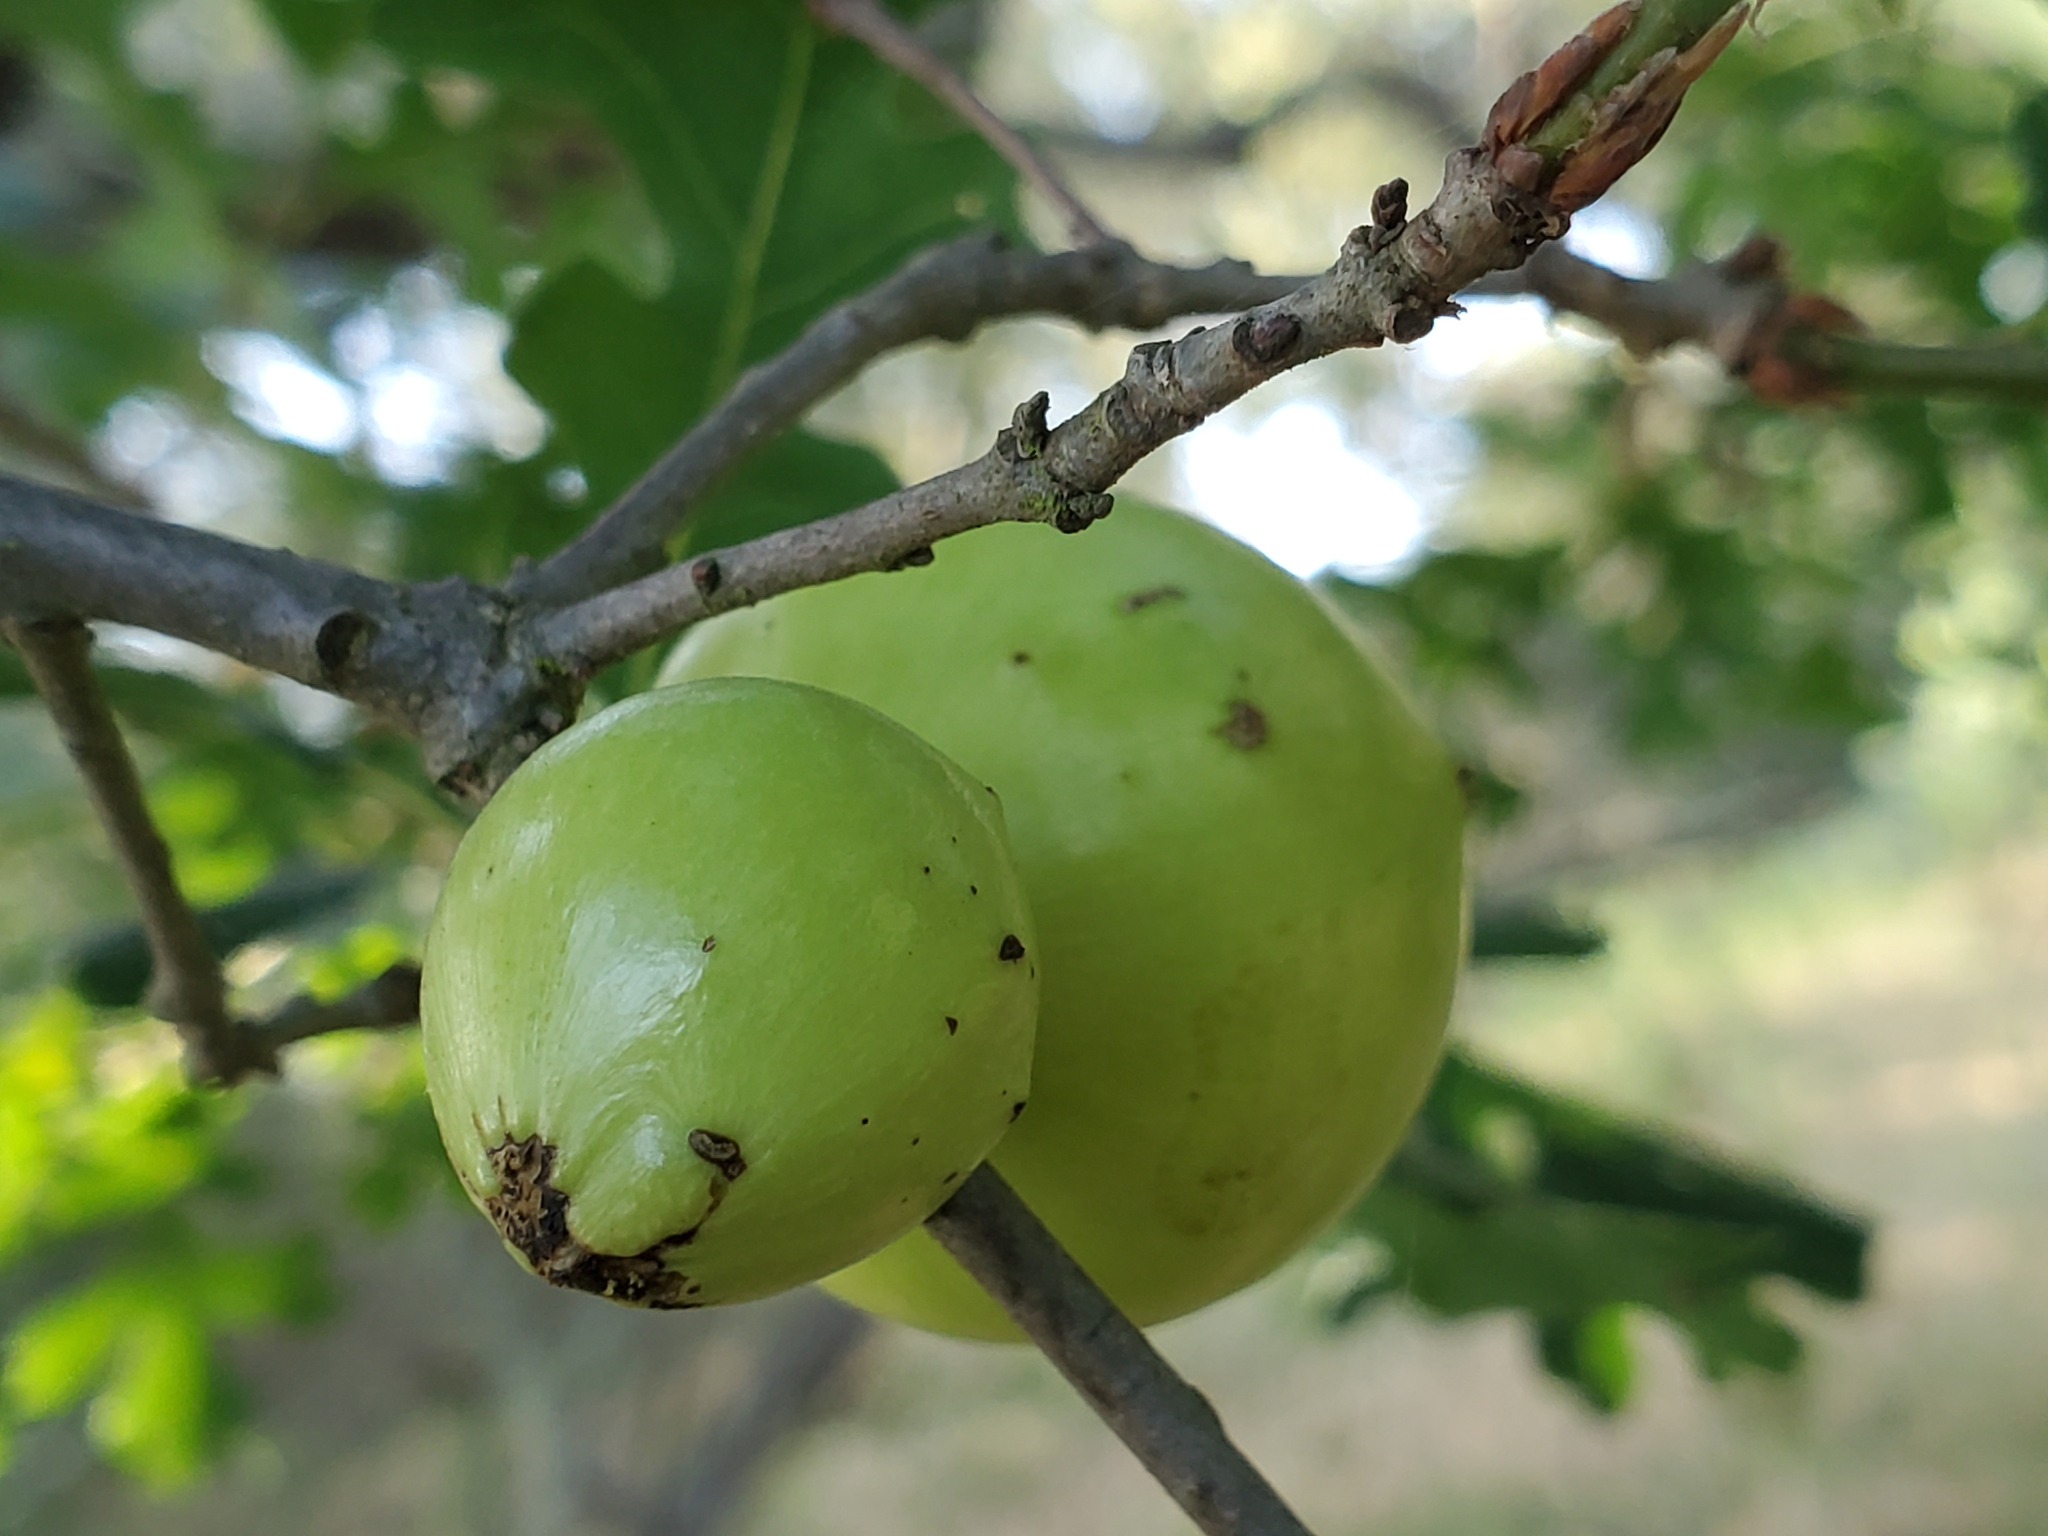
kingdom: Animalia
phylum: Arthropoda
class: Insecta
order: Hymenoptera
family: Cynipidae
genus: Andricus
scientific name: Andricus quercuscalifornicus
